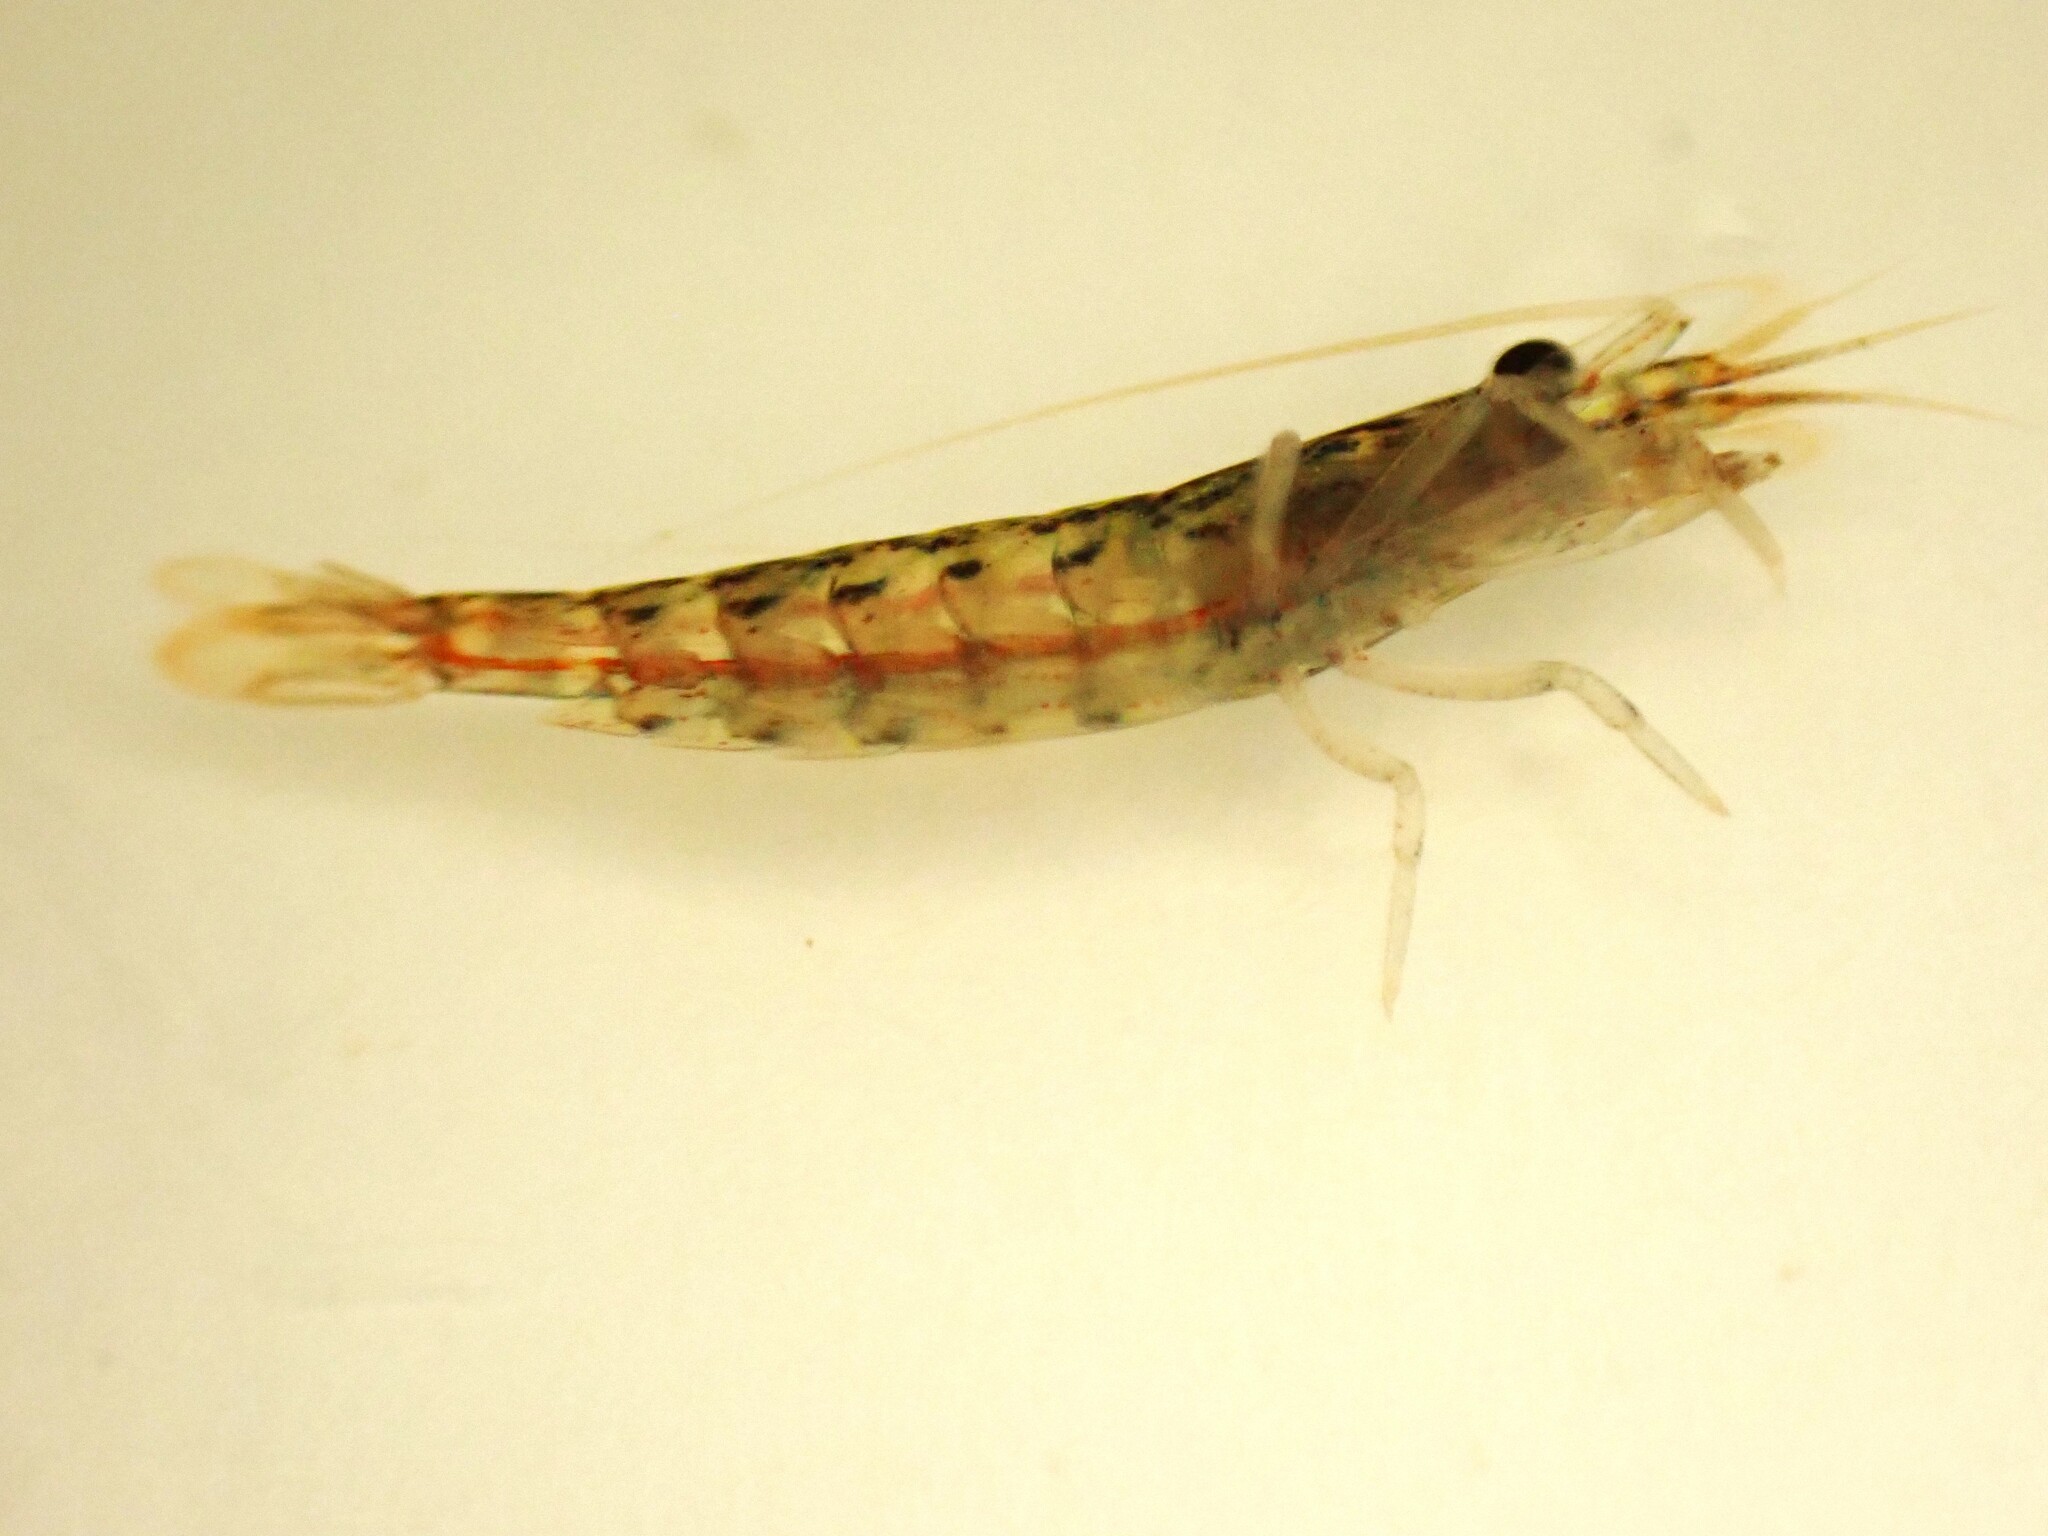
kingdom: Animalia
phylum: Arthropoda
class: Malacostraca
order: Decapoda
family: Atyidae
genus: Atyoida
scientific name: Atyoida tahitensis
